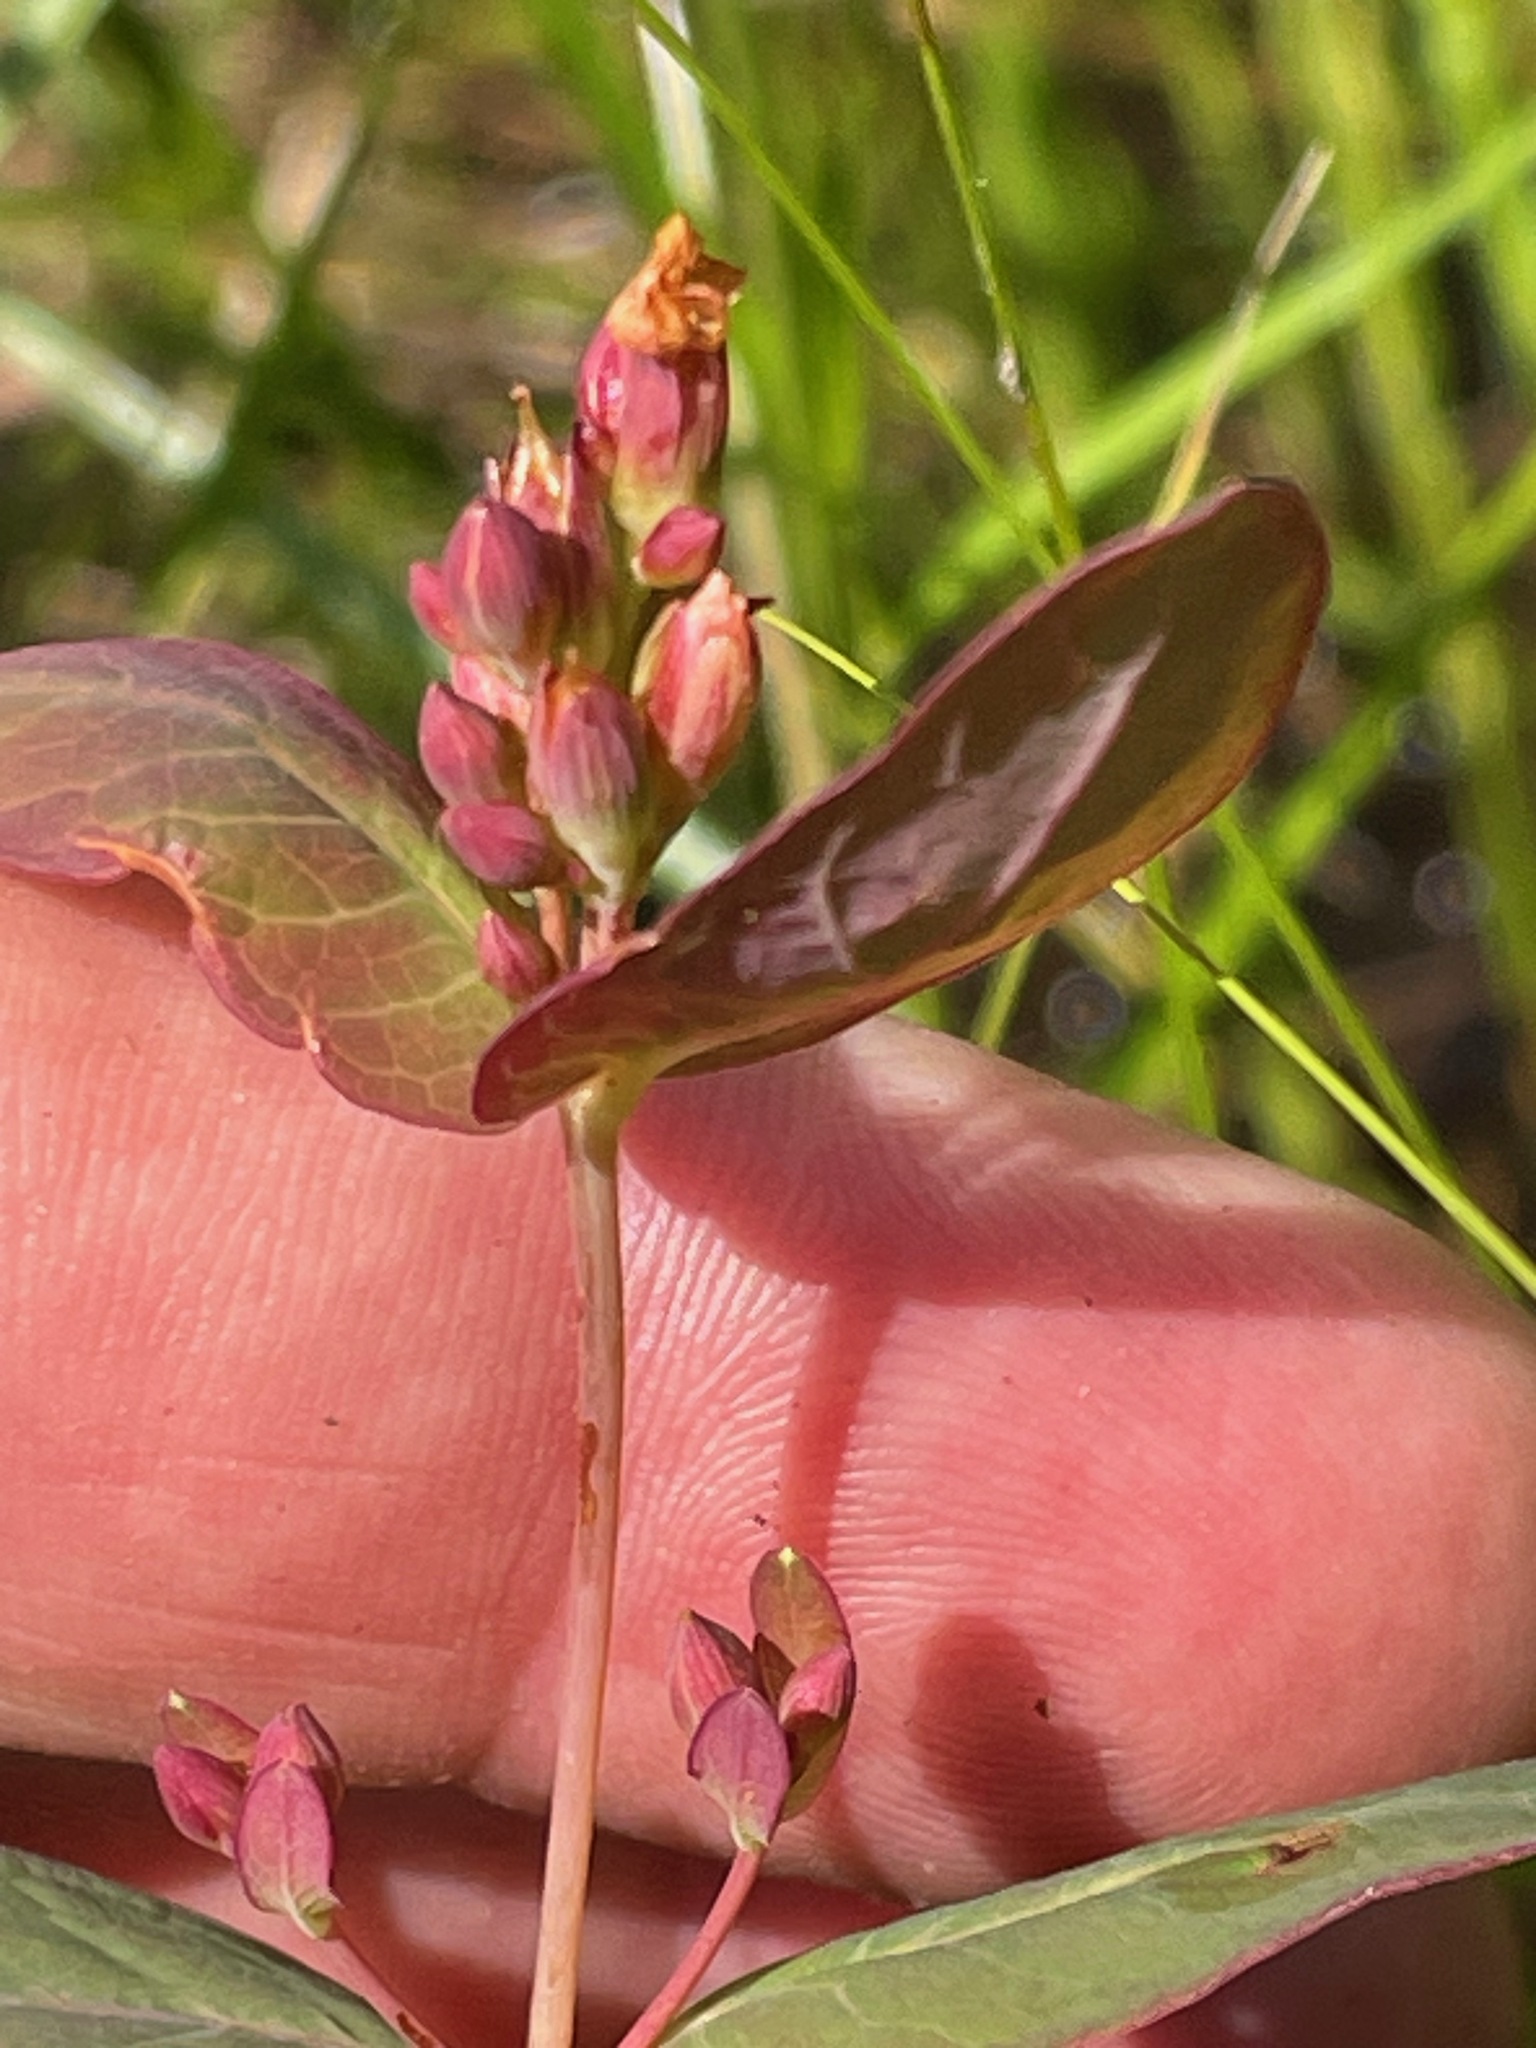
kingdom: Plantae
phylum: Tracheophyta
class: Magnoliopsida
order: Malpighiales
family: Hypericaceae
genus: Triadenum
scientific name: Triadenum fraseri
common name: Fraser's marsh st. johnswort
